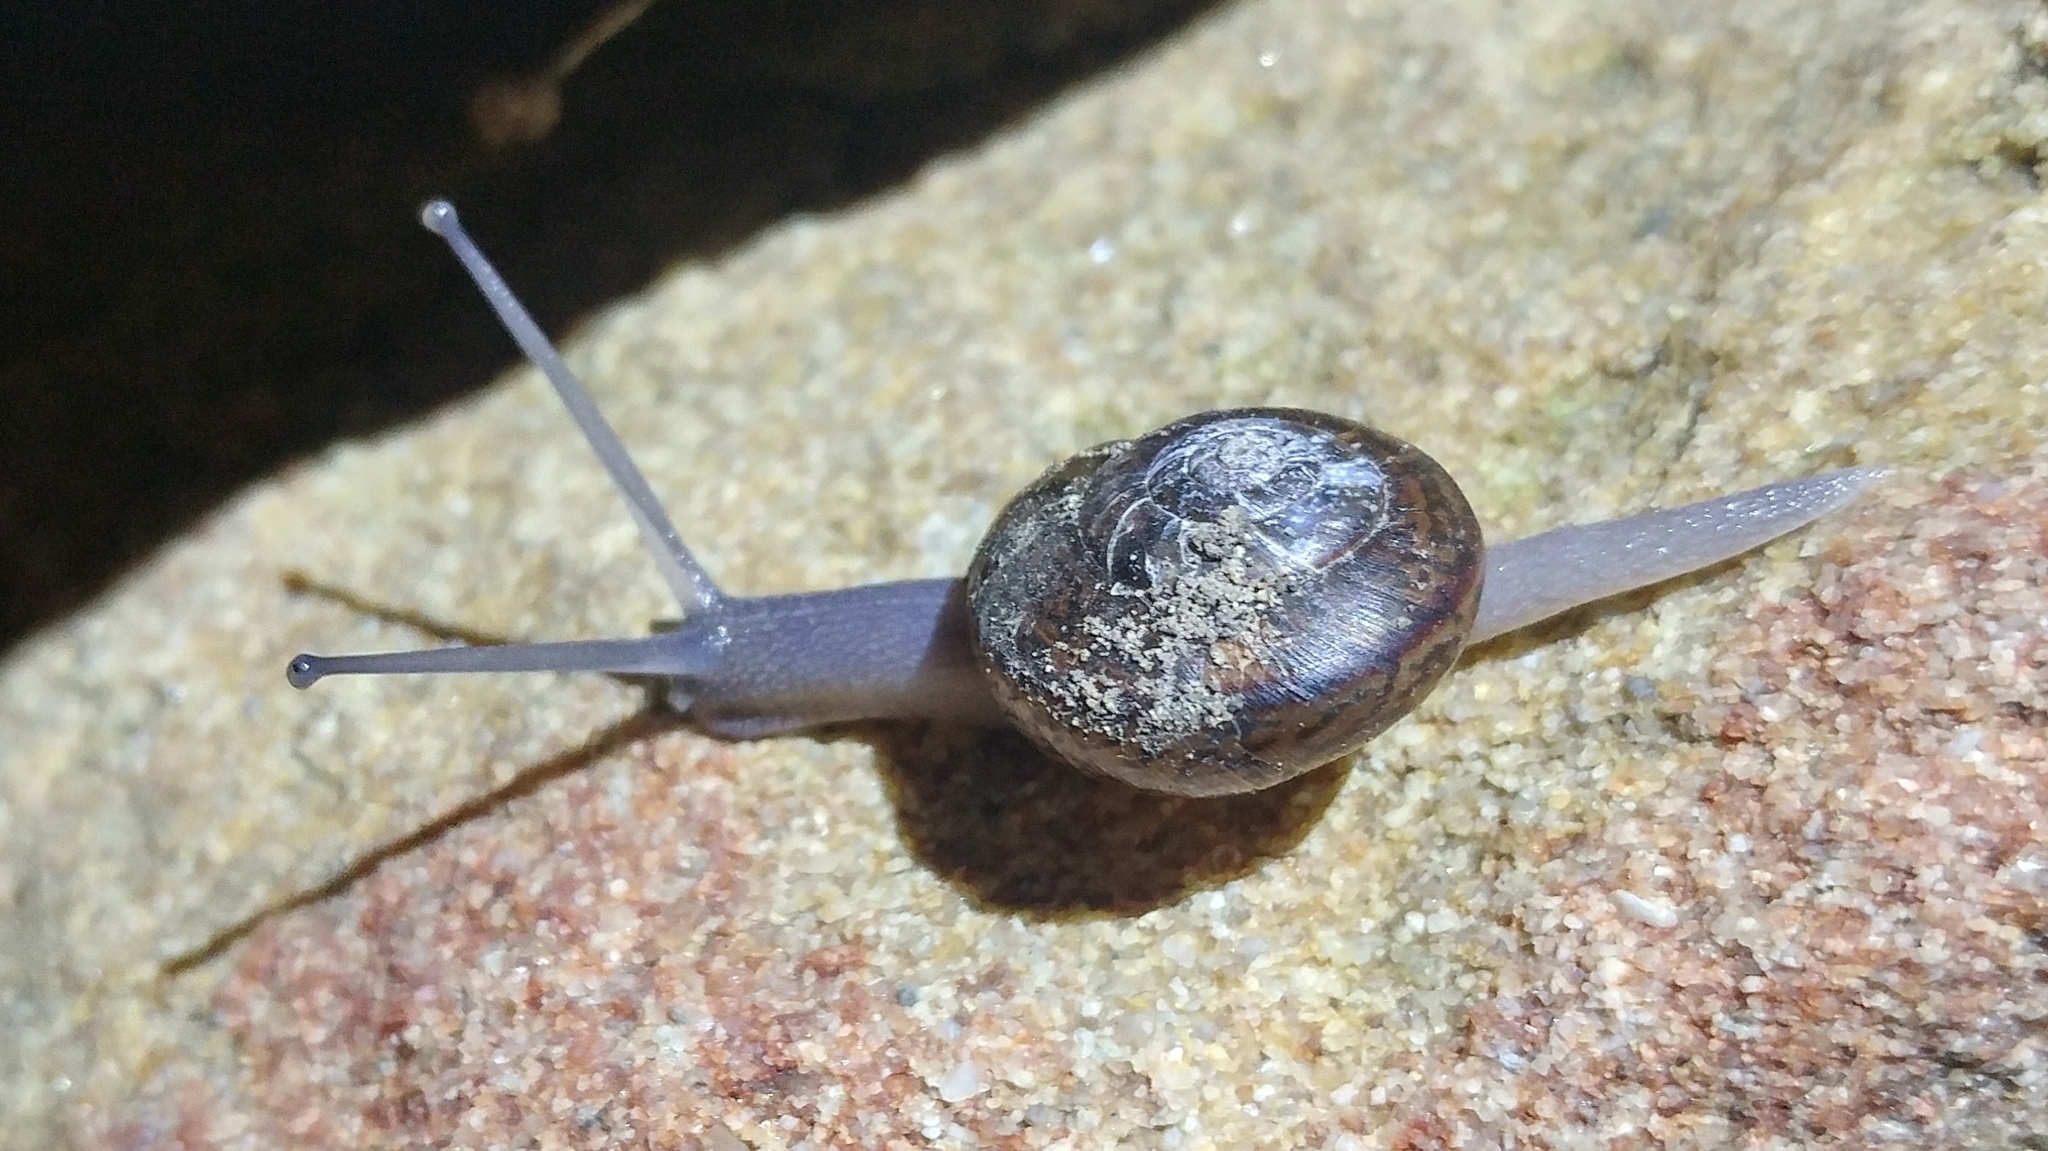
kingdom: Animalia
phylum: Mollusca
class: Gastropoda
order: Stylommatophora
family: Xanthonychidae
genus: Helminthoglypta
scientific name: Helminthoglypta phlyctaena
